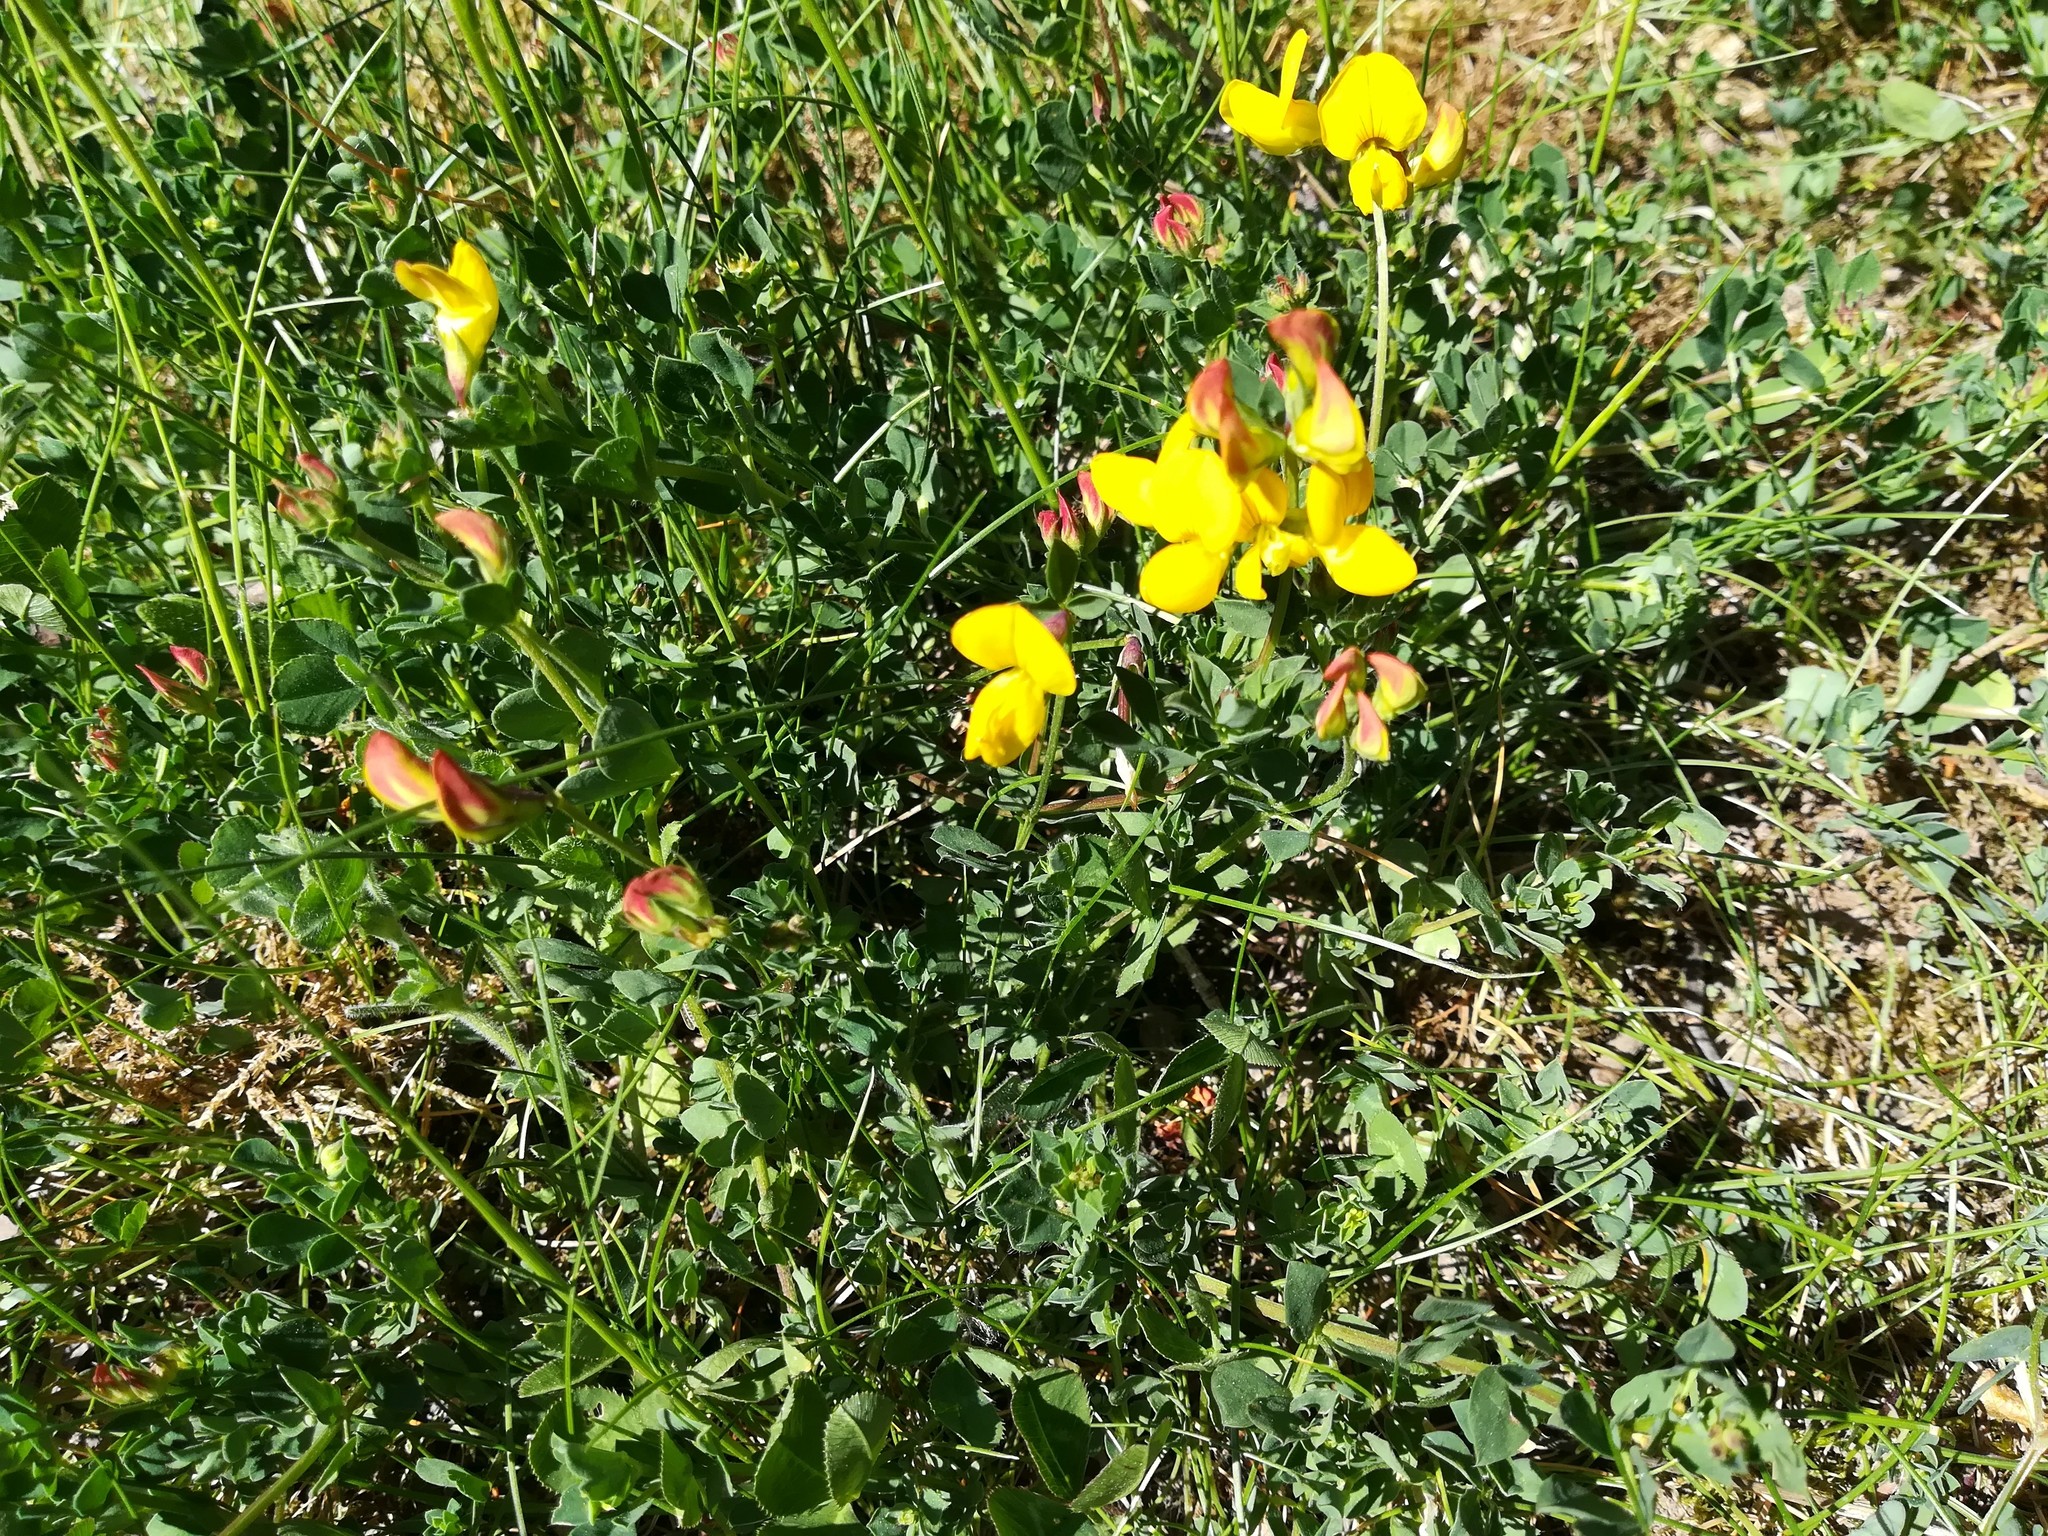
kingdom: Plantae
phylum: Tracheophyta
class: Magnoliopsida
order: Fabales
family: Fabaceae
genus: Lotus
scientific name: Lotus corniculatus
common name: Common bird's-foot-trefoil
